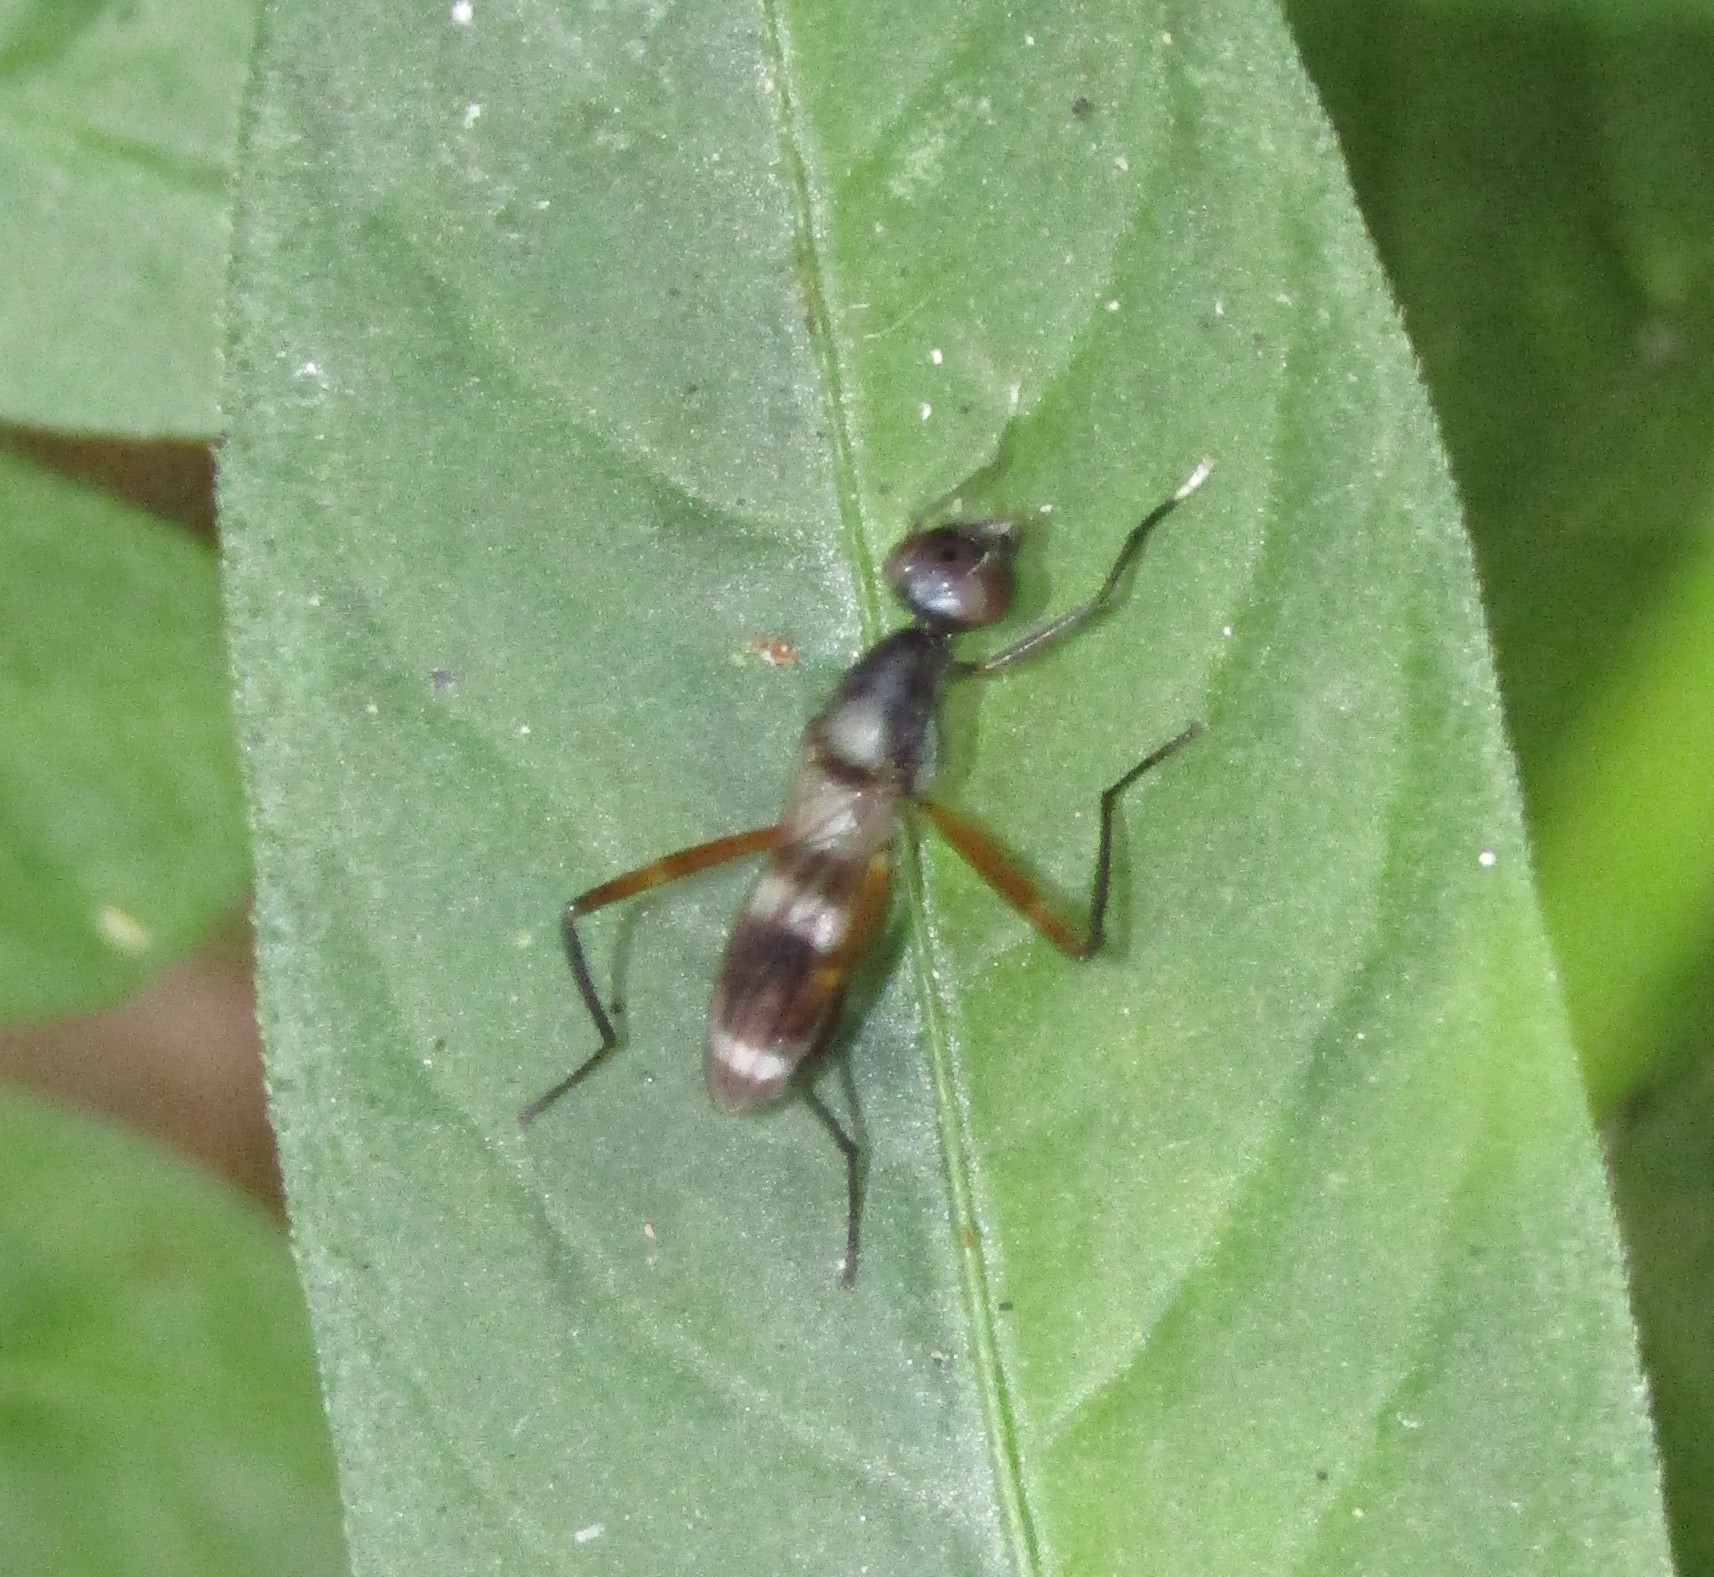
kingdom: Animalia
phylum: Arthropoda
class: Insecta
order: Diptera
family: Micropezidae
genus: Taeniaptera
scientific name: Taeniaptera trivittata
